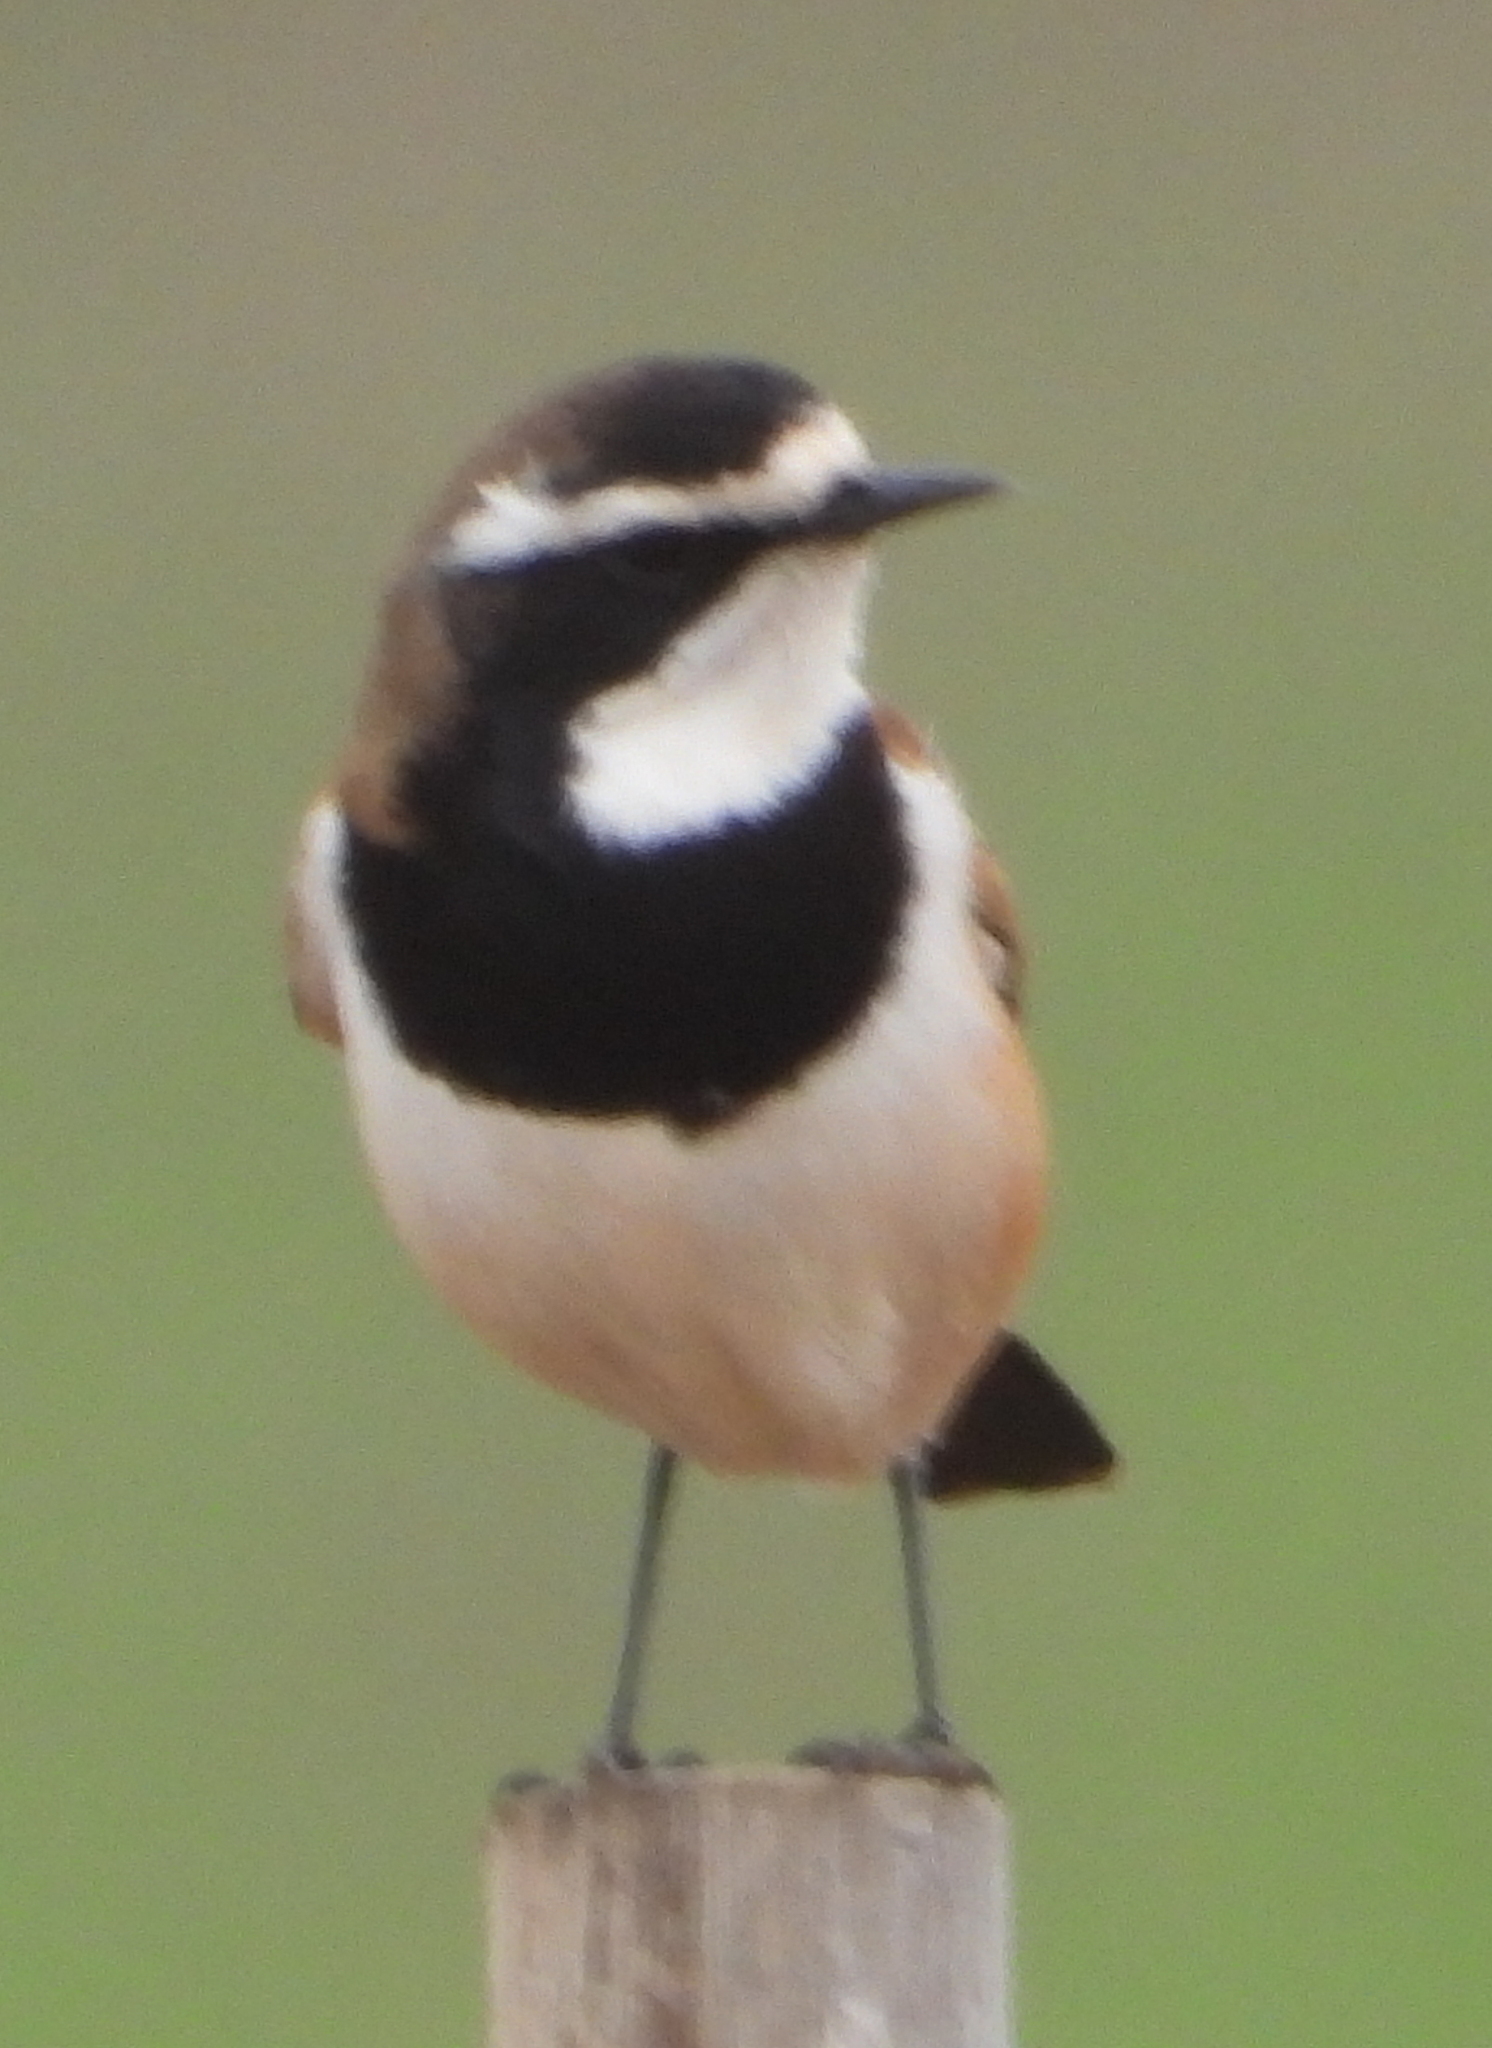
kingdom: Animalia
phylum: Chordata
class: Aves
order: Passeriformes
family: Muscicapidae
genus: Oenanthe
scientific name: Oenanthe pileata
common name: Capped wheatear
